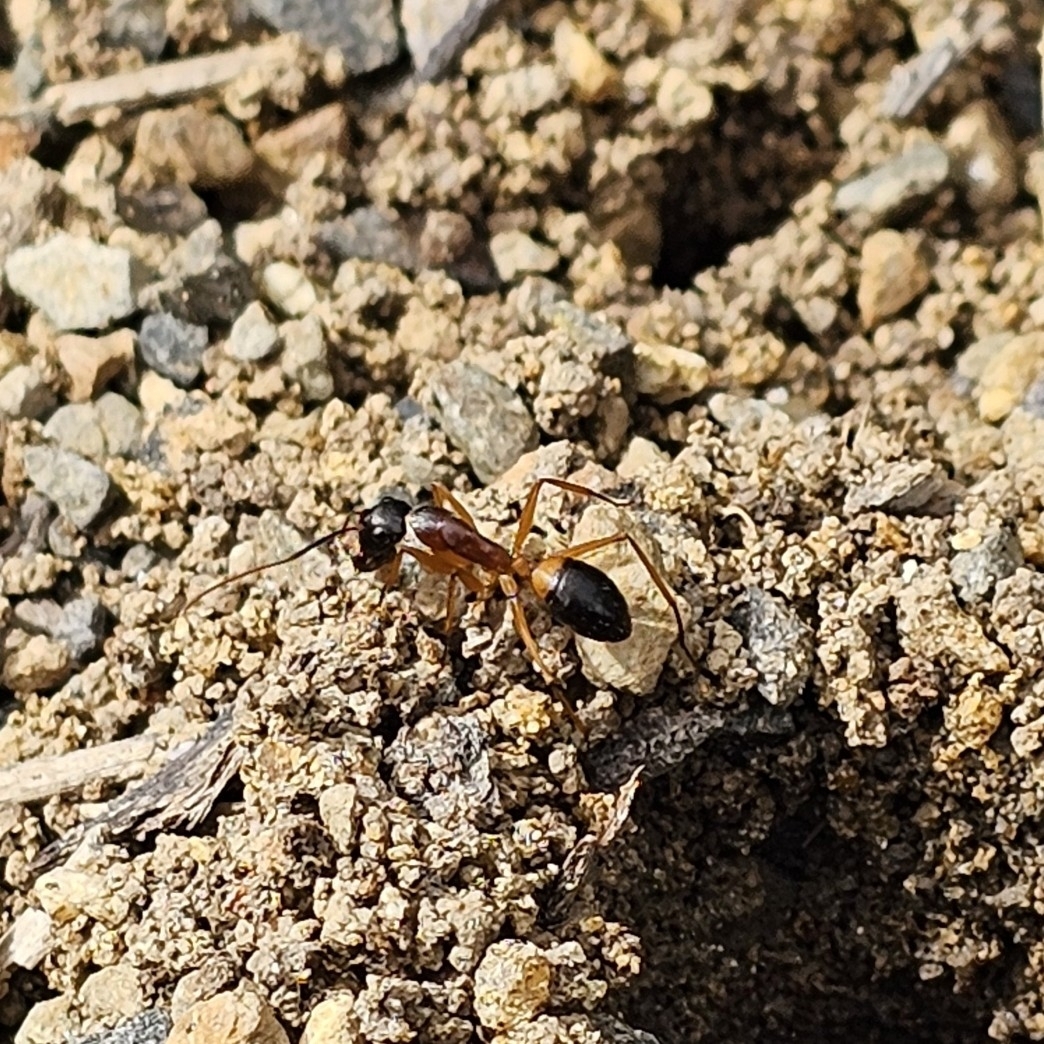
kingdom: Animalia
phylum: Arthropoda
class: Insecta
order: Hymenoptera
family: Formicidae
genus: Camponotus
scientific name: Camponotus consobrinus
